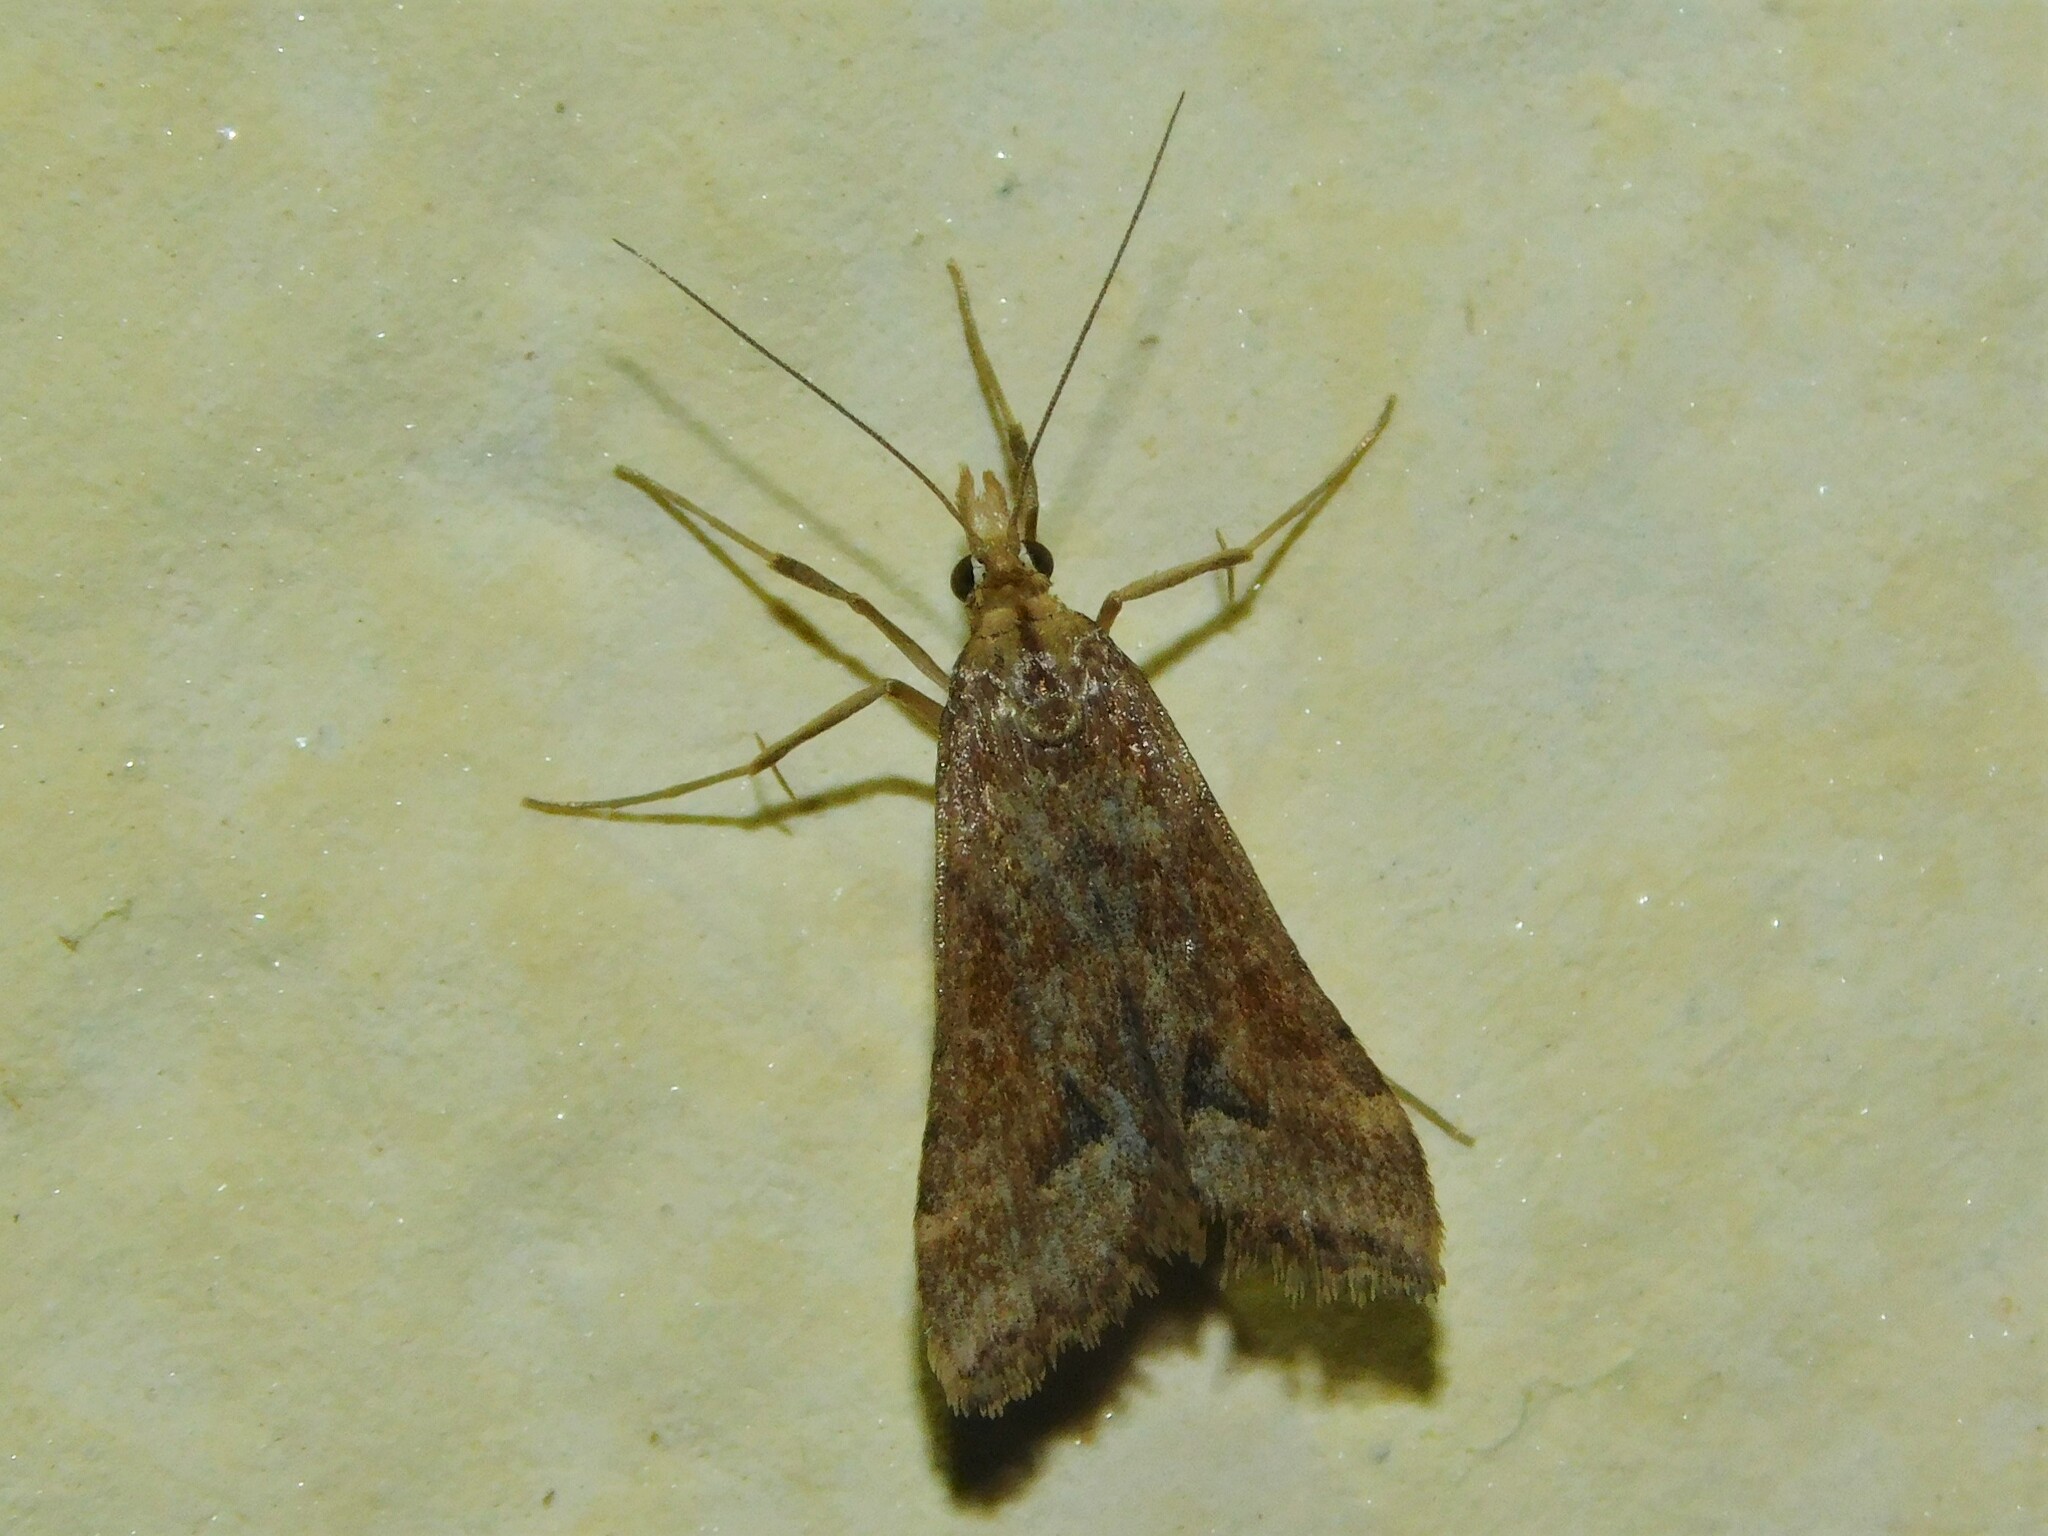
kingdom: Animalia
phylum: Arthropoda
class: Insecta
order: Lepidoptera
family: Crambidae
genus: Diasemia
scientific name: Diasemia monostigma
